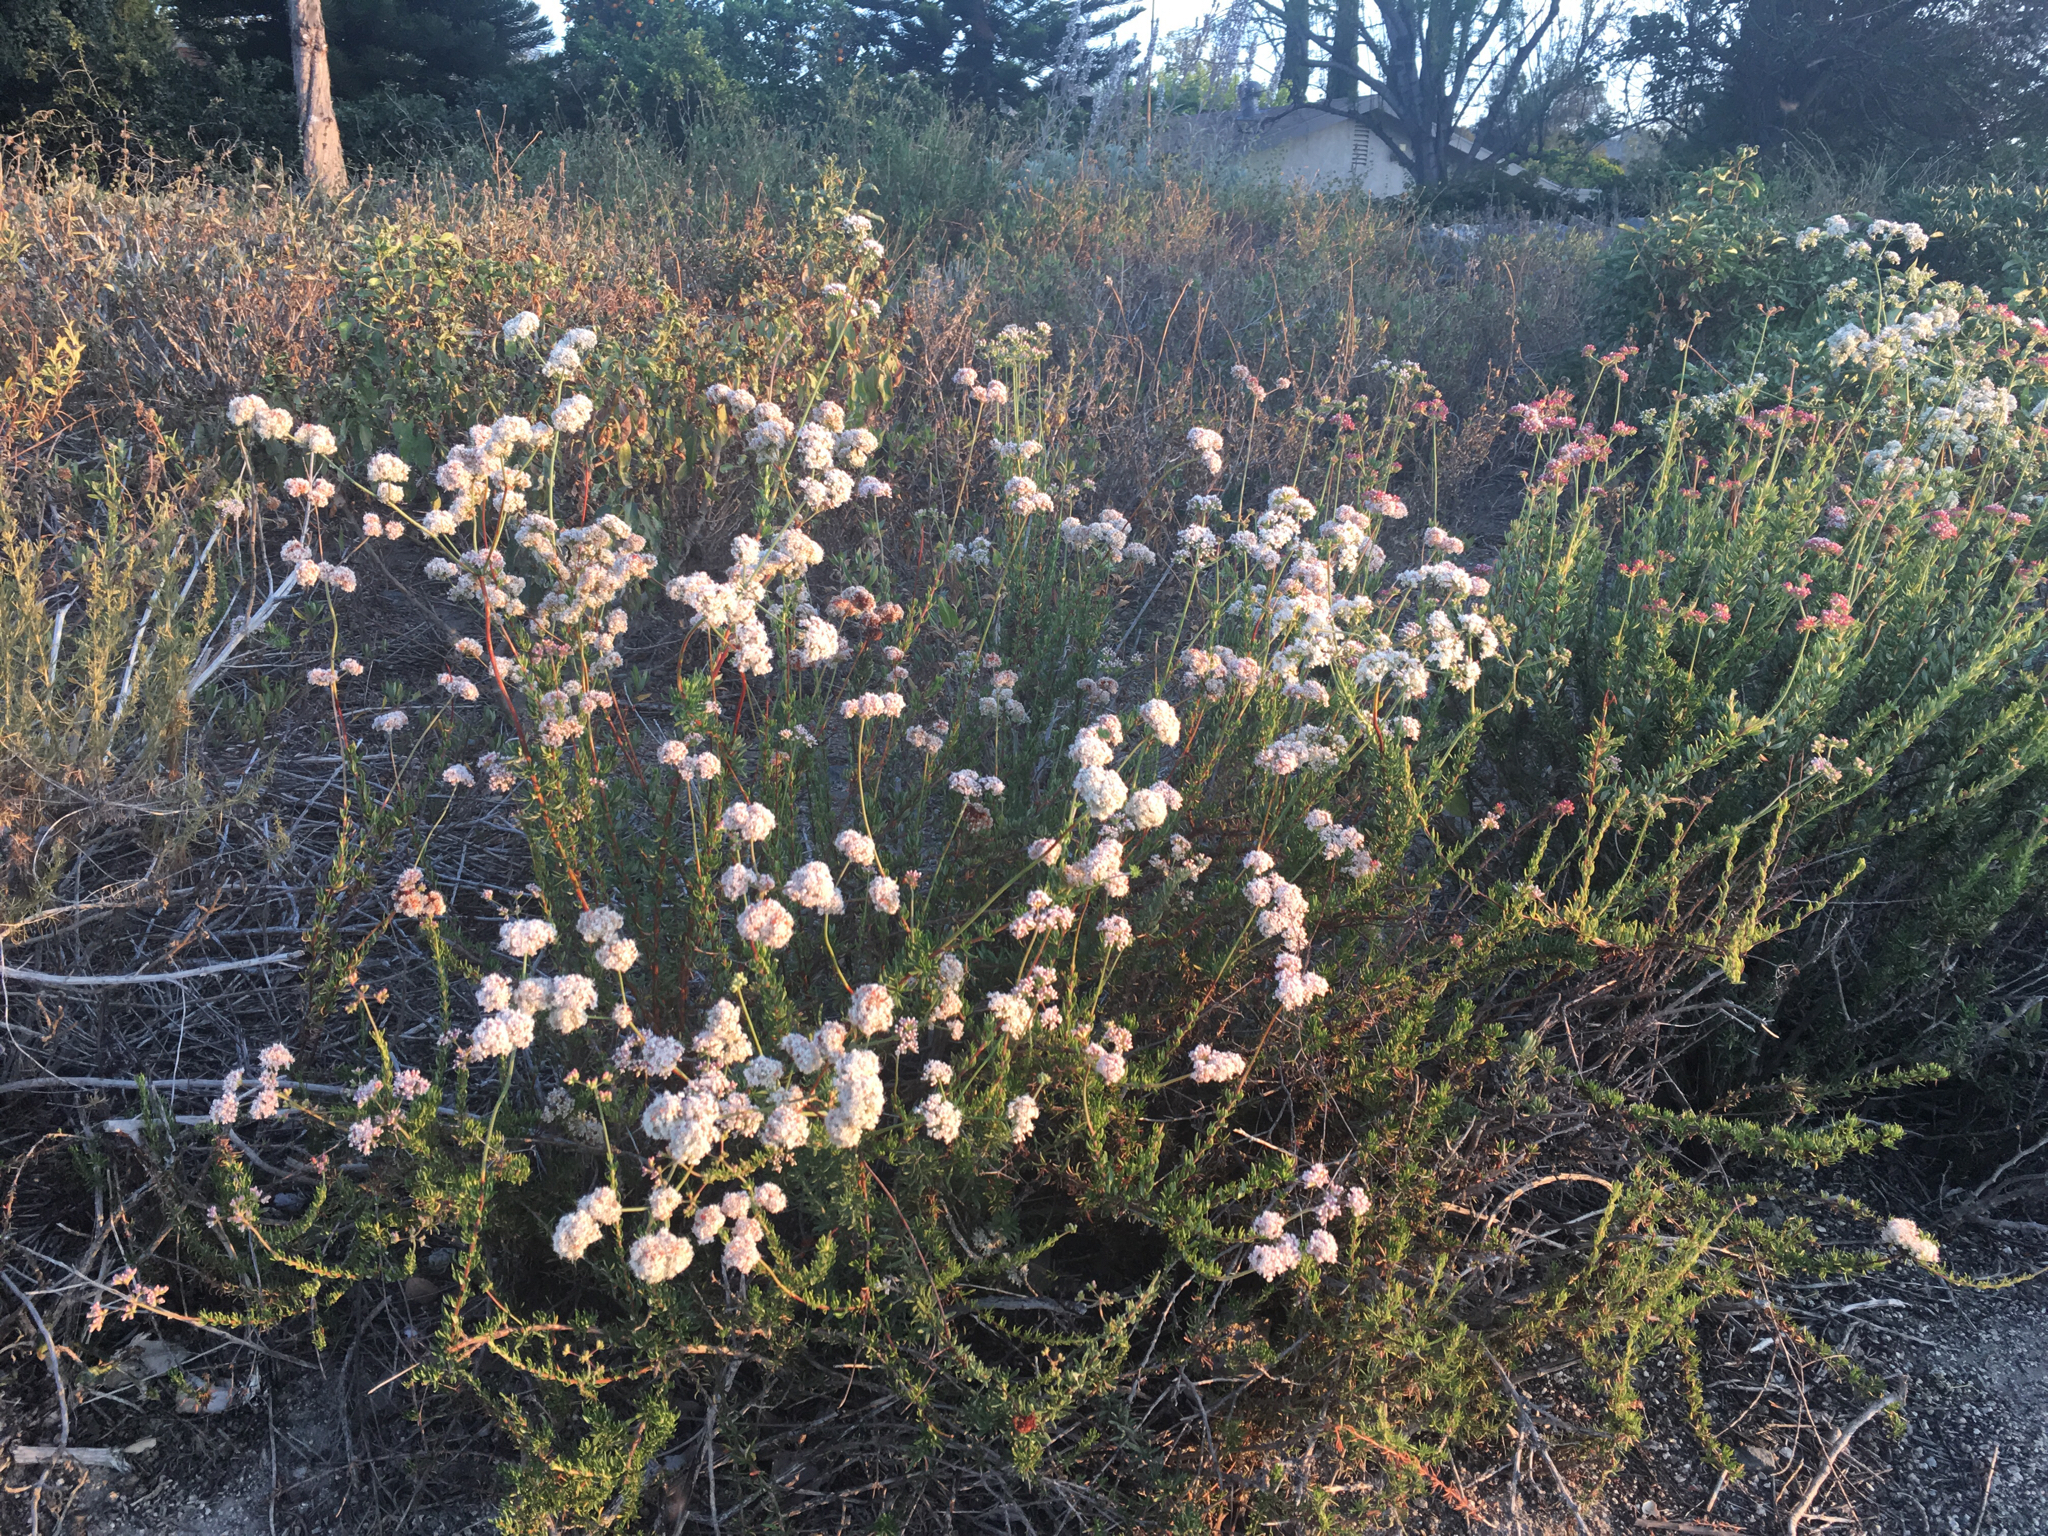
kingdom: Plantae
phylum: Tracheophyta
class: Magnoliopsida
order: Caryophyllales
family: Polygonaceae
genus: Eriogonum
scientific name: Eriogonum fasciculatum
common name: California wild buckwheat
